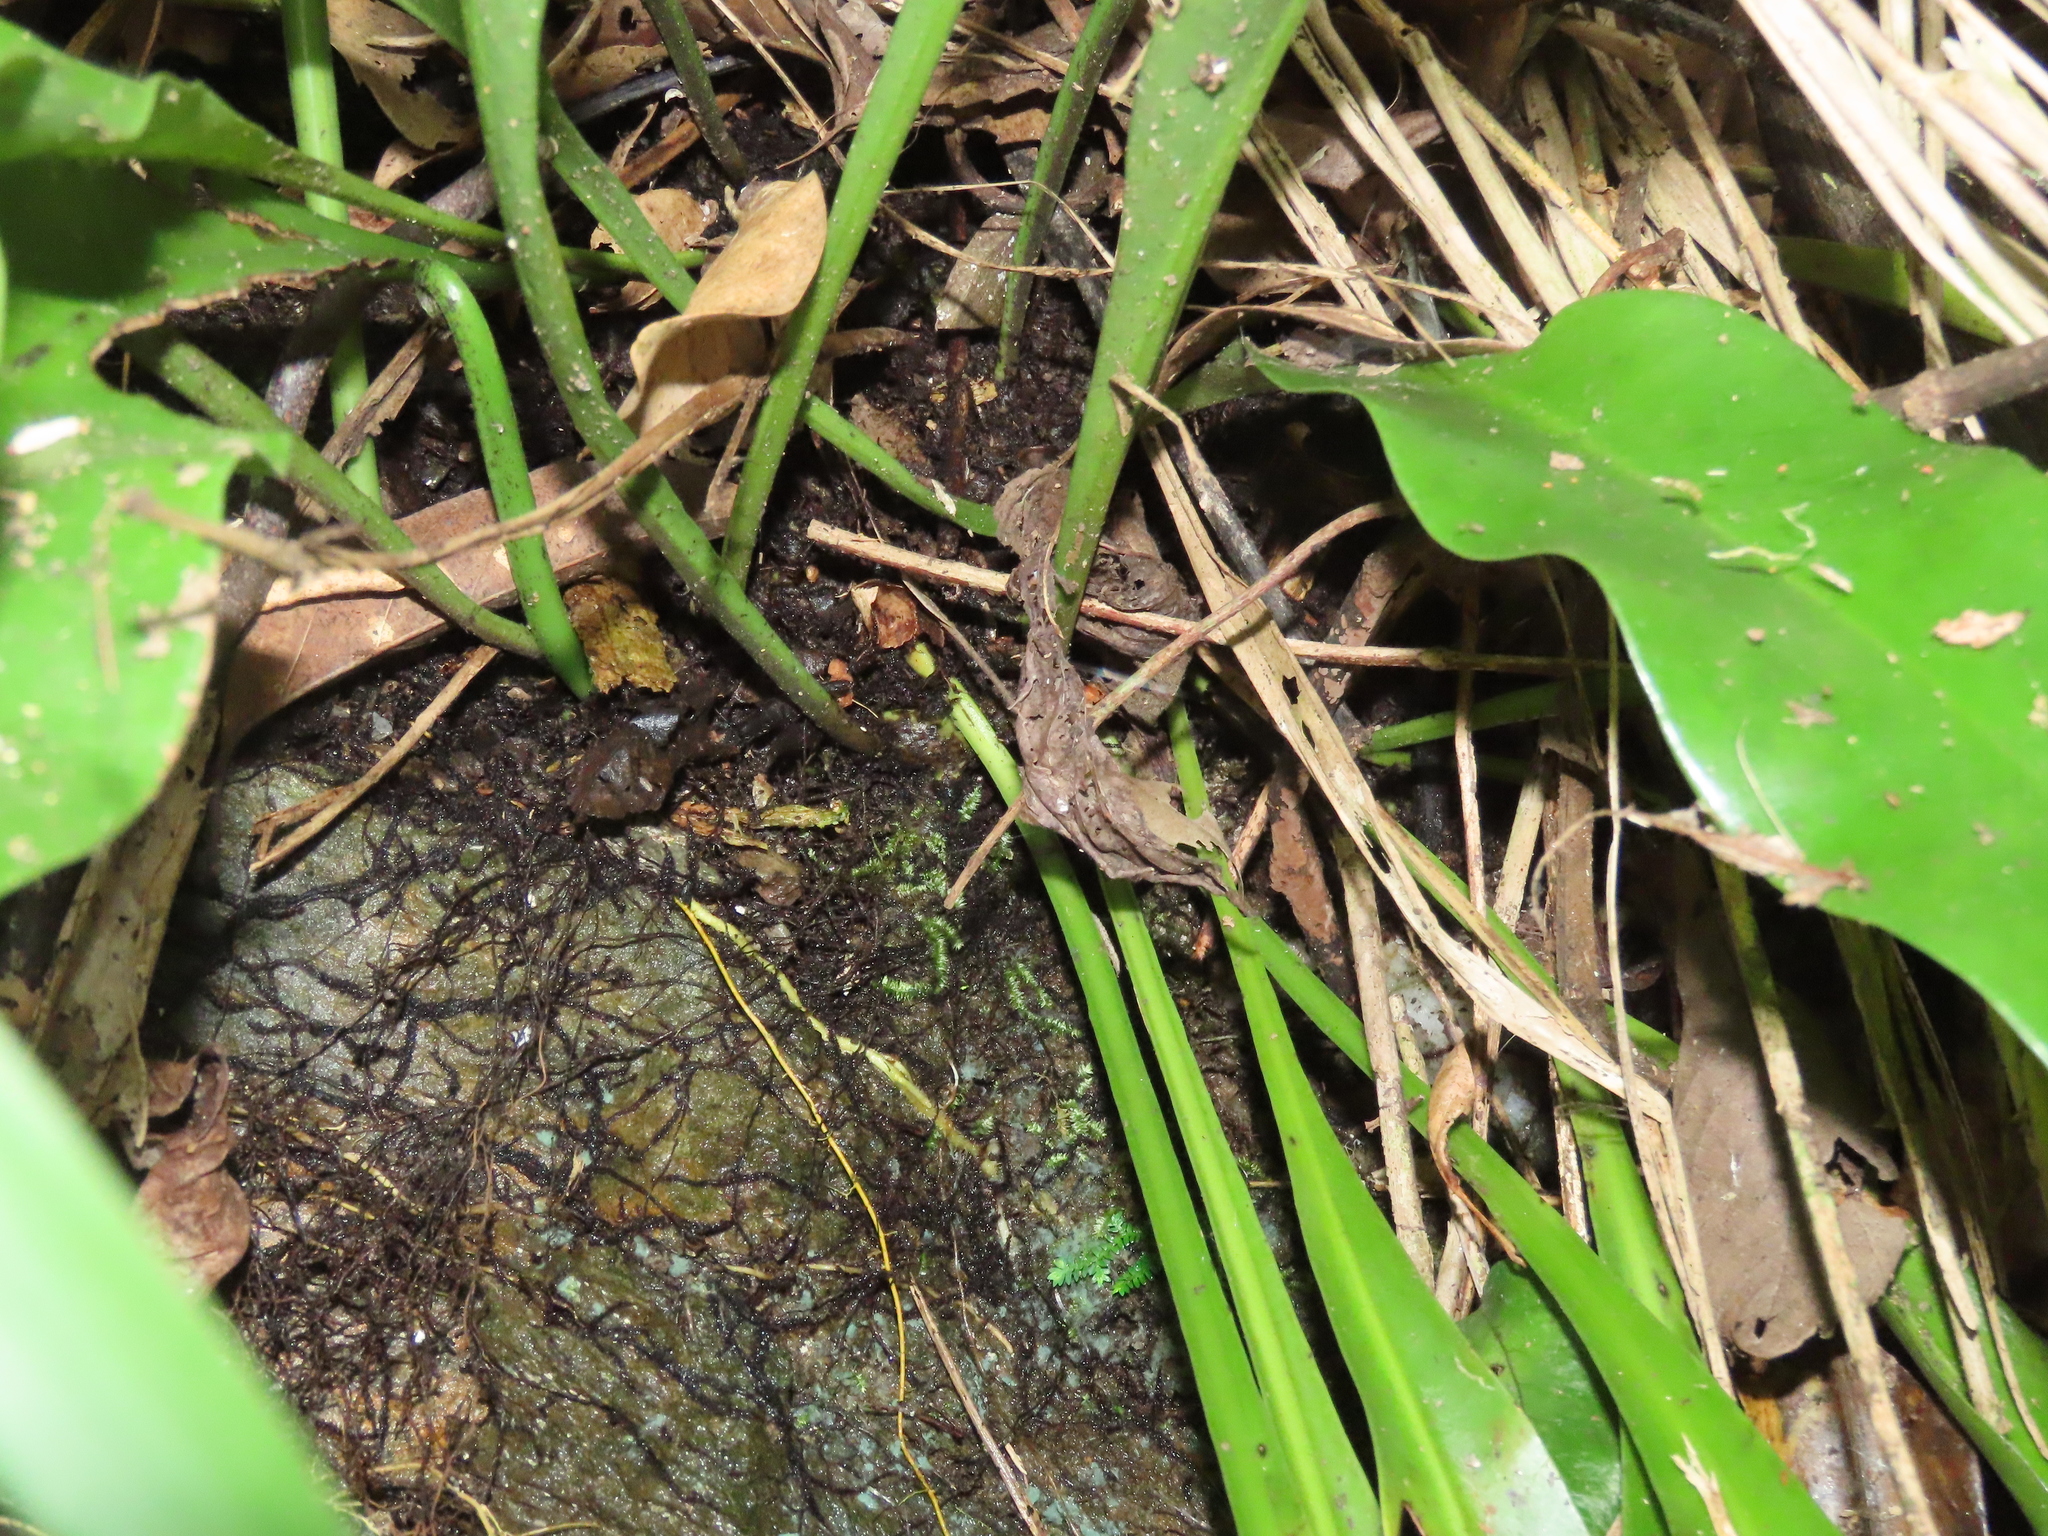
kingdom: Plantae
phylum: Tracheophyta
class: Polypodiopsida
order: Polypodiales
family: Polypodiaceae
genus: Microsorum
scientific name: Microsorum punctatum
